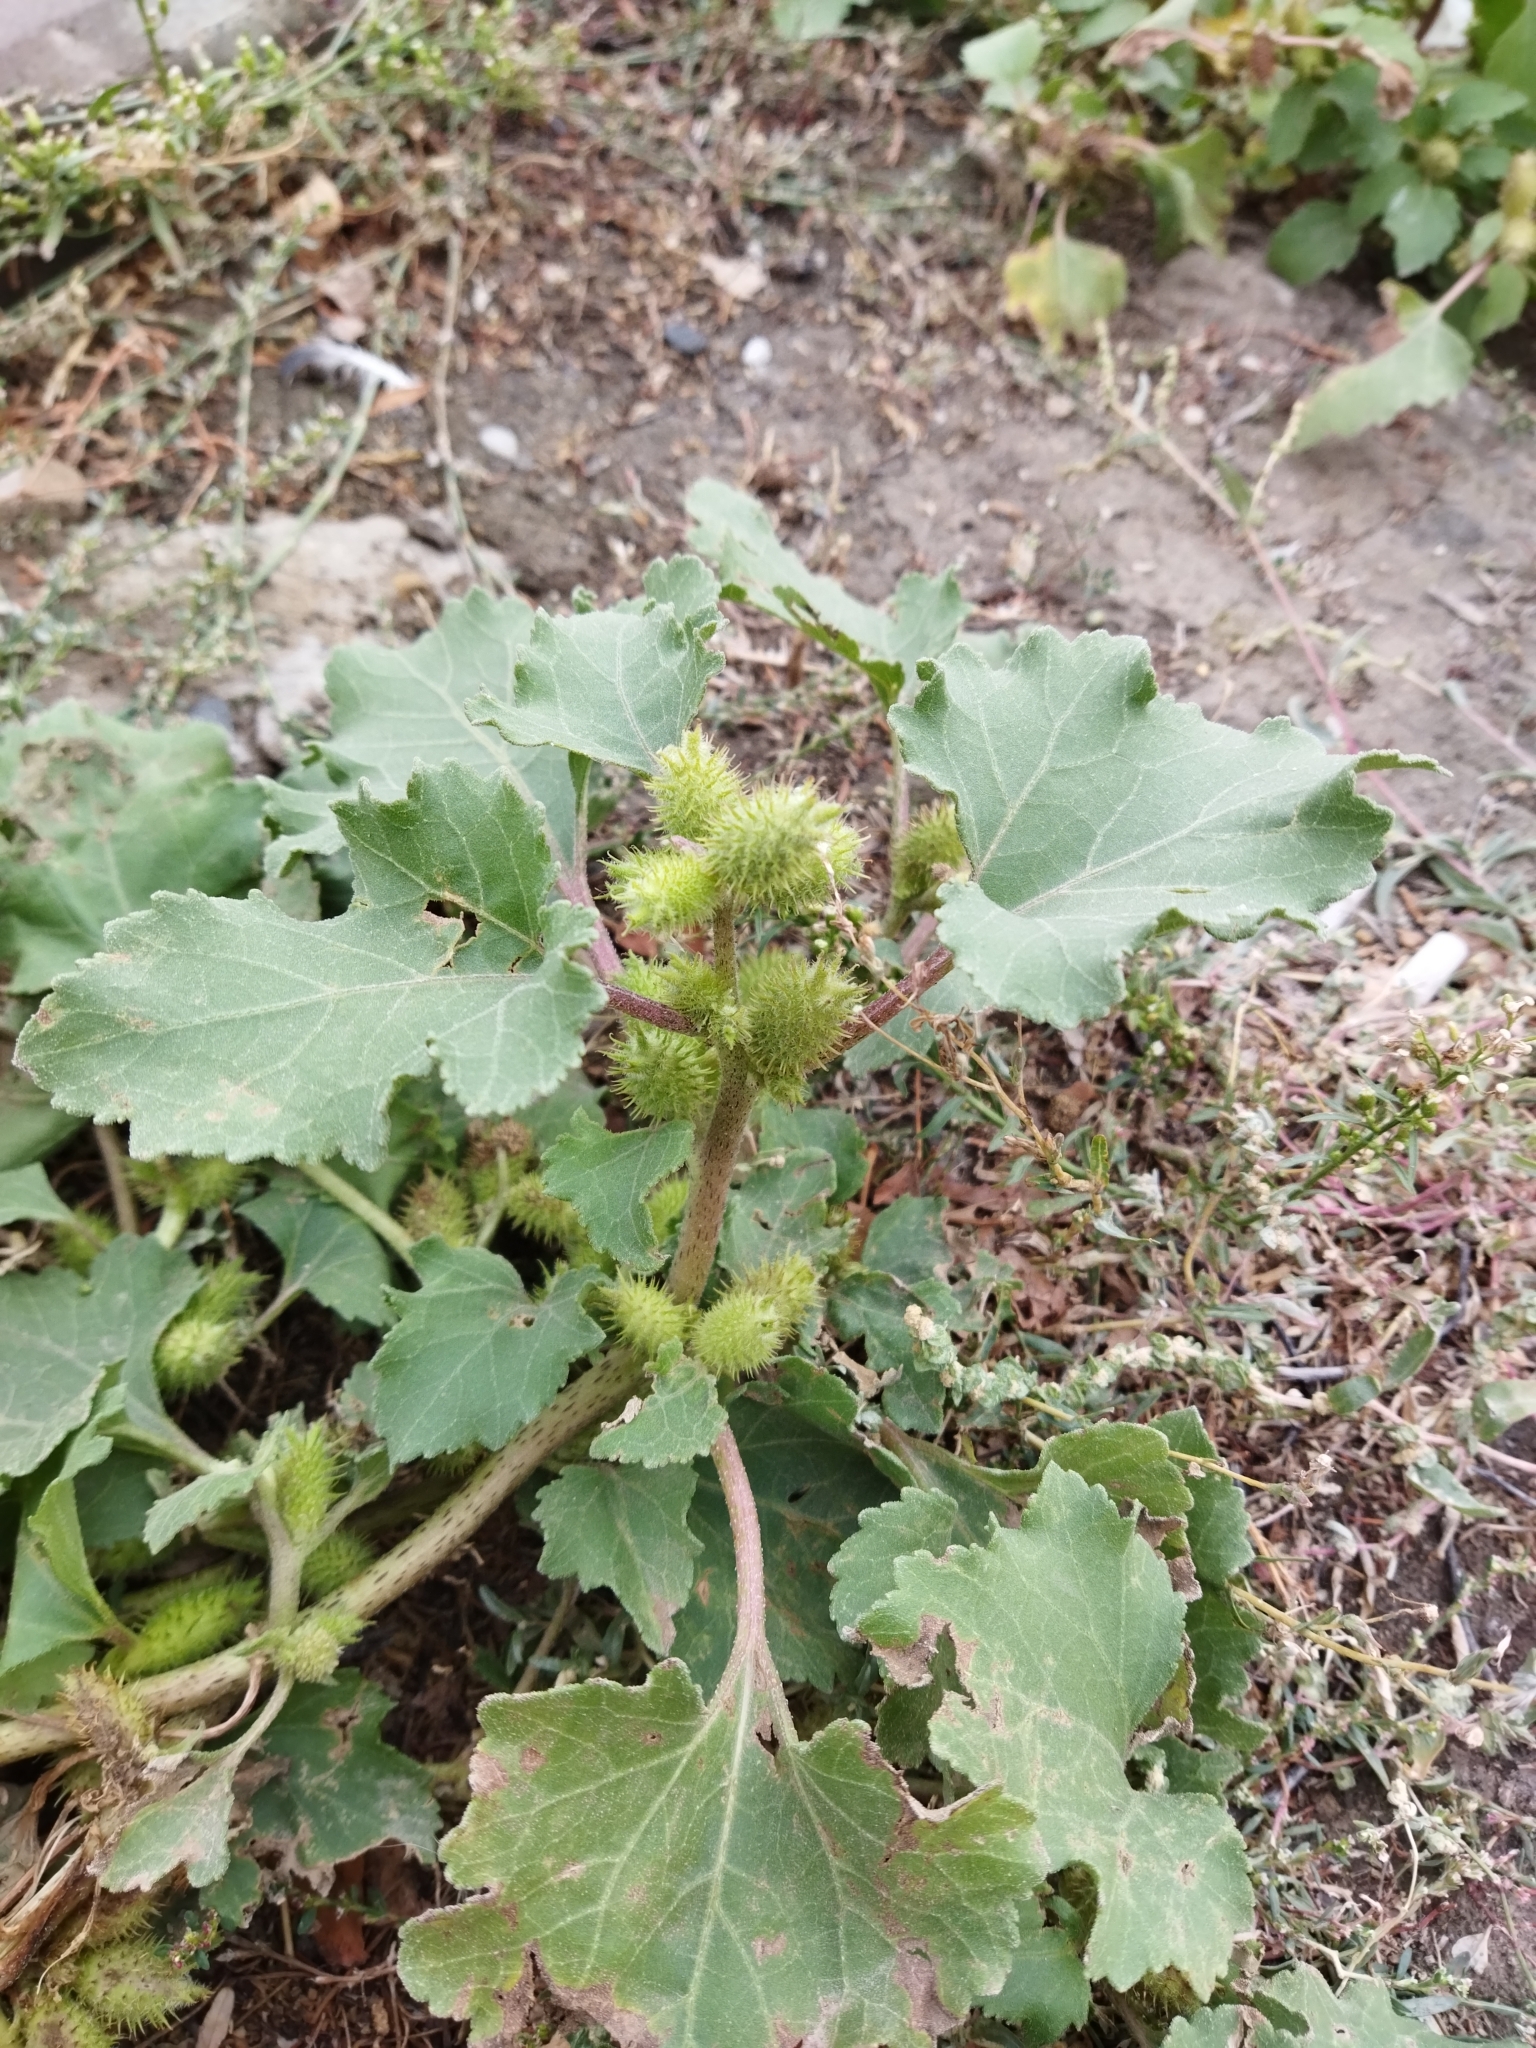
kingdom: Plantae
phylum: Tracheophyta
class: Magnoliopsida
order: Asterales
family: Asteraceae
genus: Xanthium
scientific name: Xanthium orientale
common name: Californian burr
